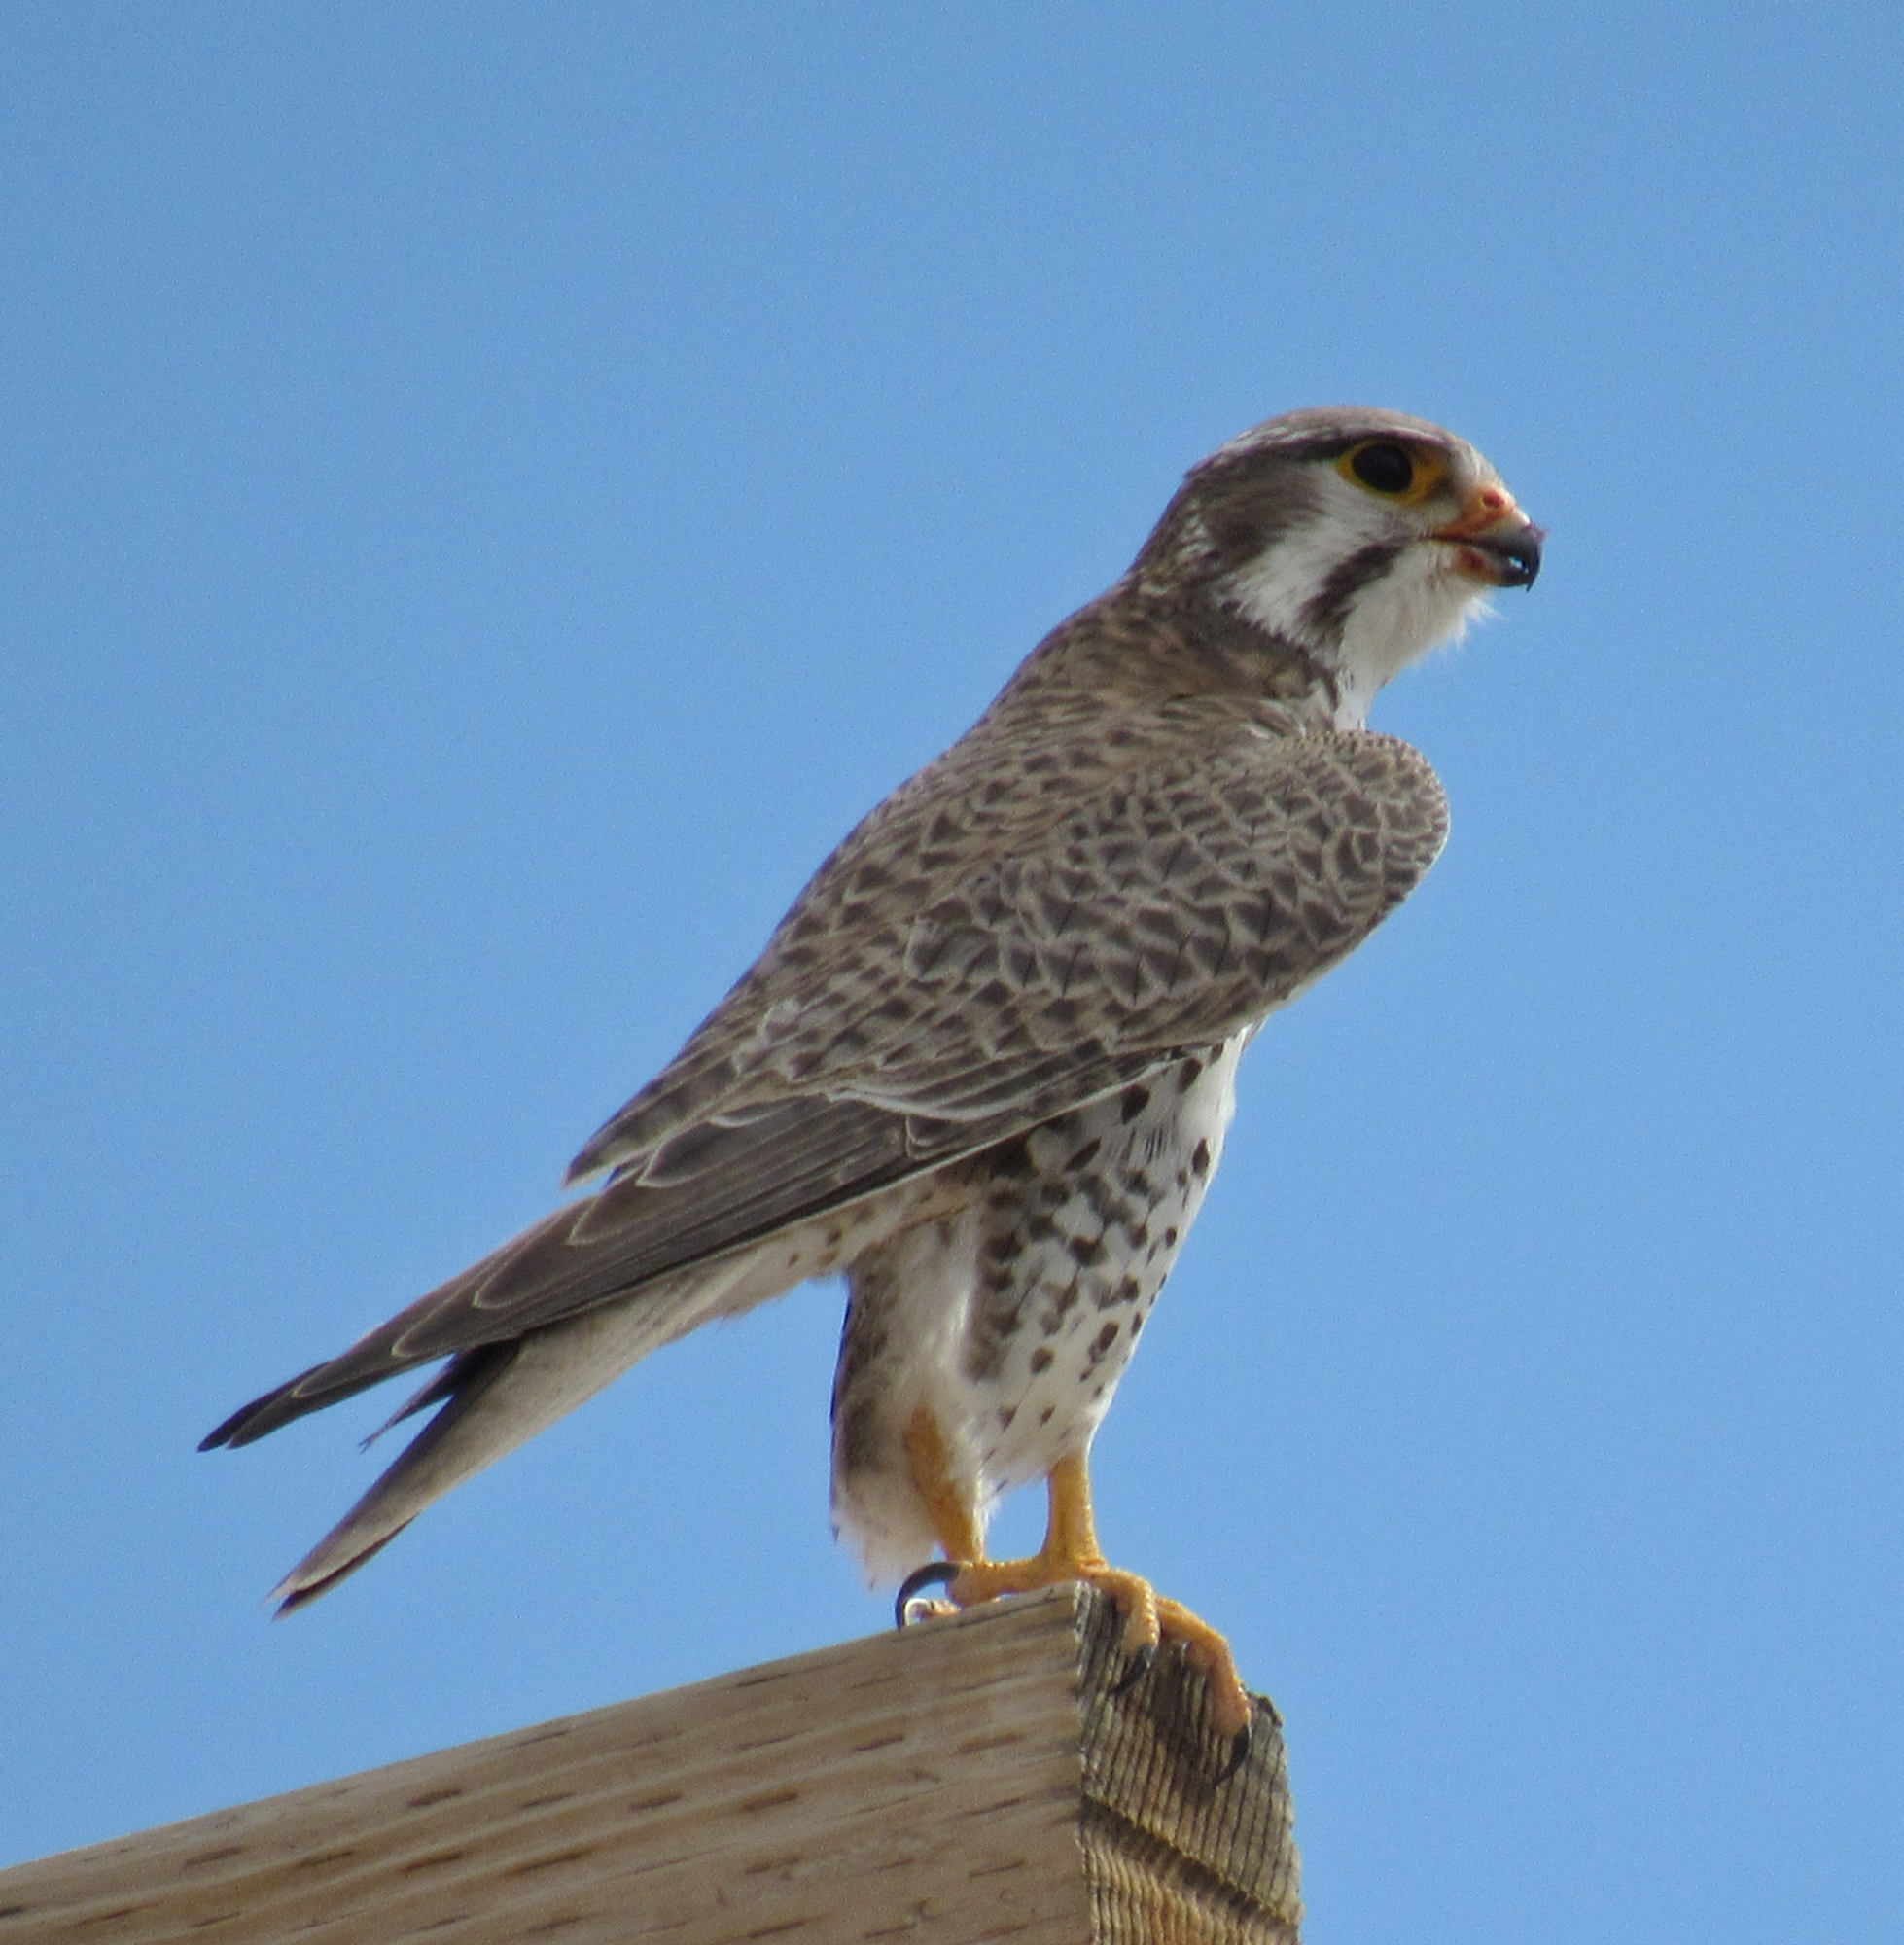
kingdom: Animalia
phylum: Chordata
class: Aves
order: Falconiformes
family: Falconidae
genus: Falco
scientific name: Falco mexicanus
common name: Prairie falcon
